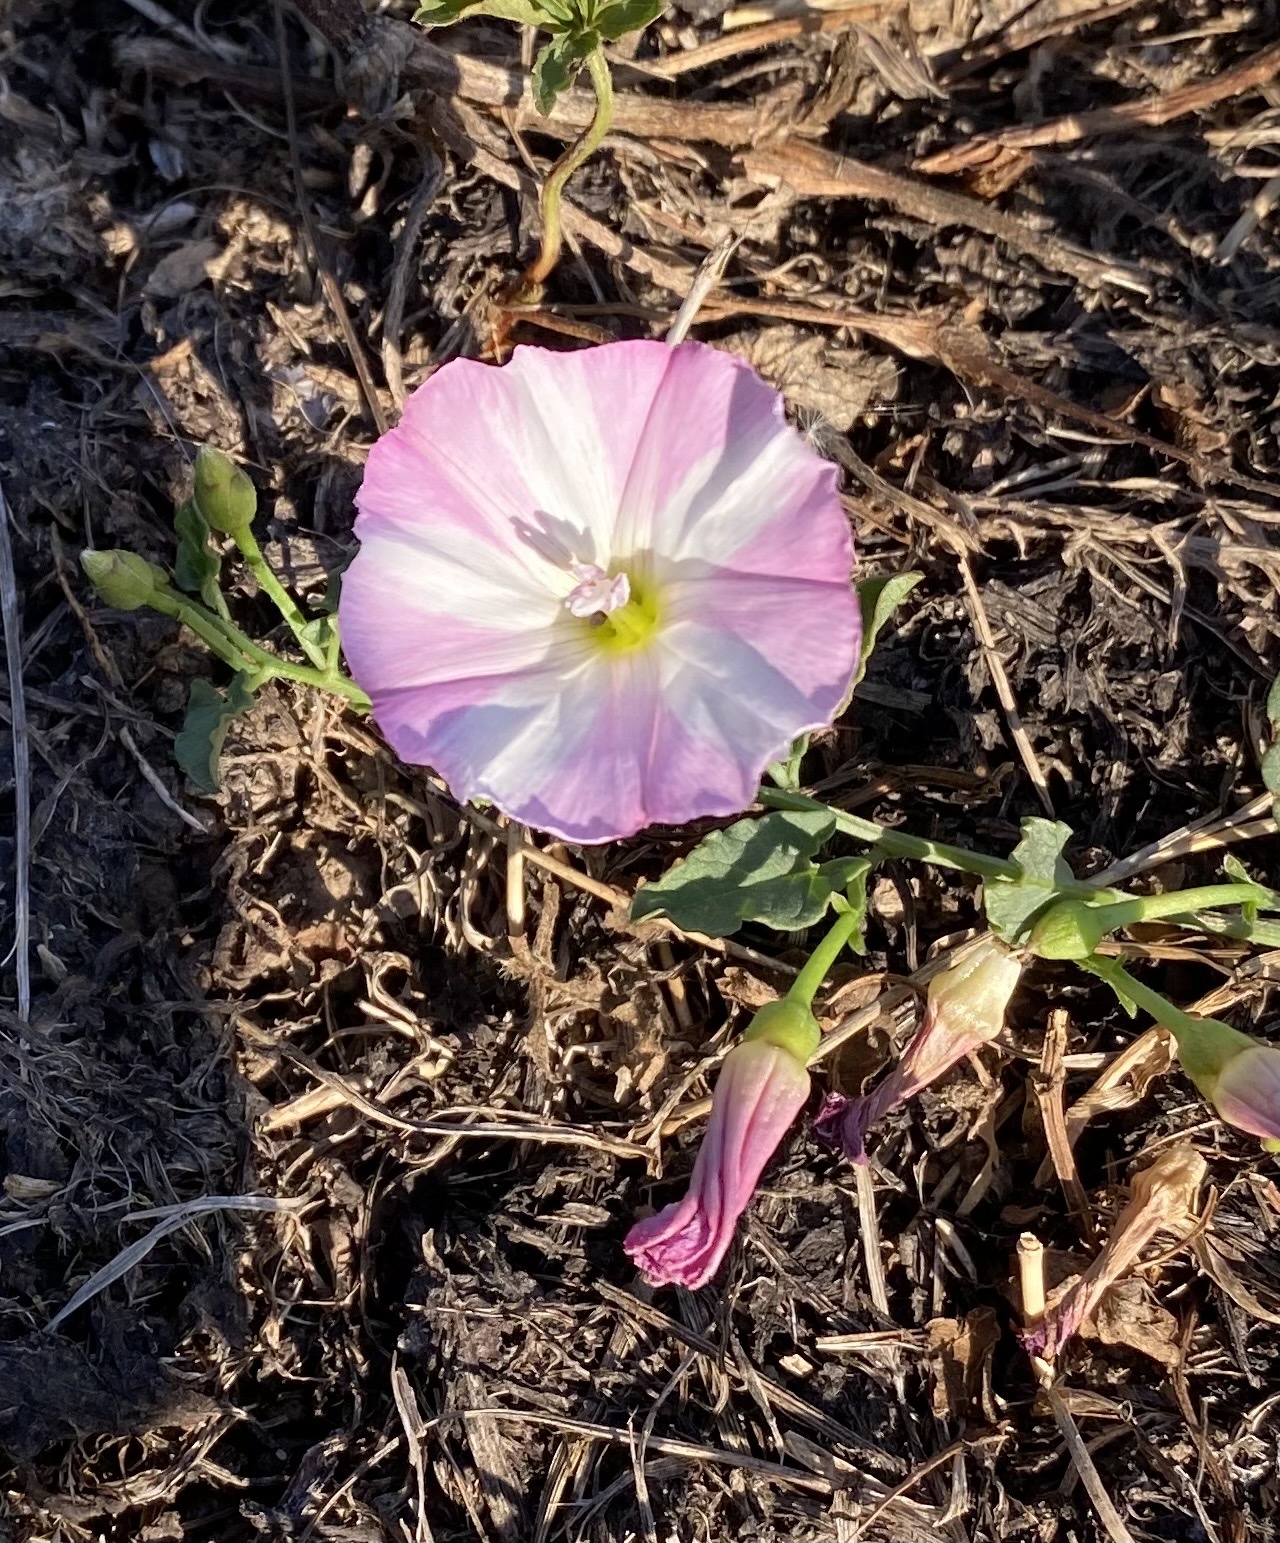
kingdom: Plantae
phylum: Tracheophyta
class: Magnoliopsida
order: Solanales
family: Convolvulaceae
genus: Convolvulus
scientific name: Convolvulus arvensis
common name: Field bindweed
